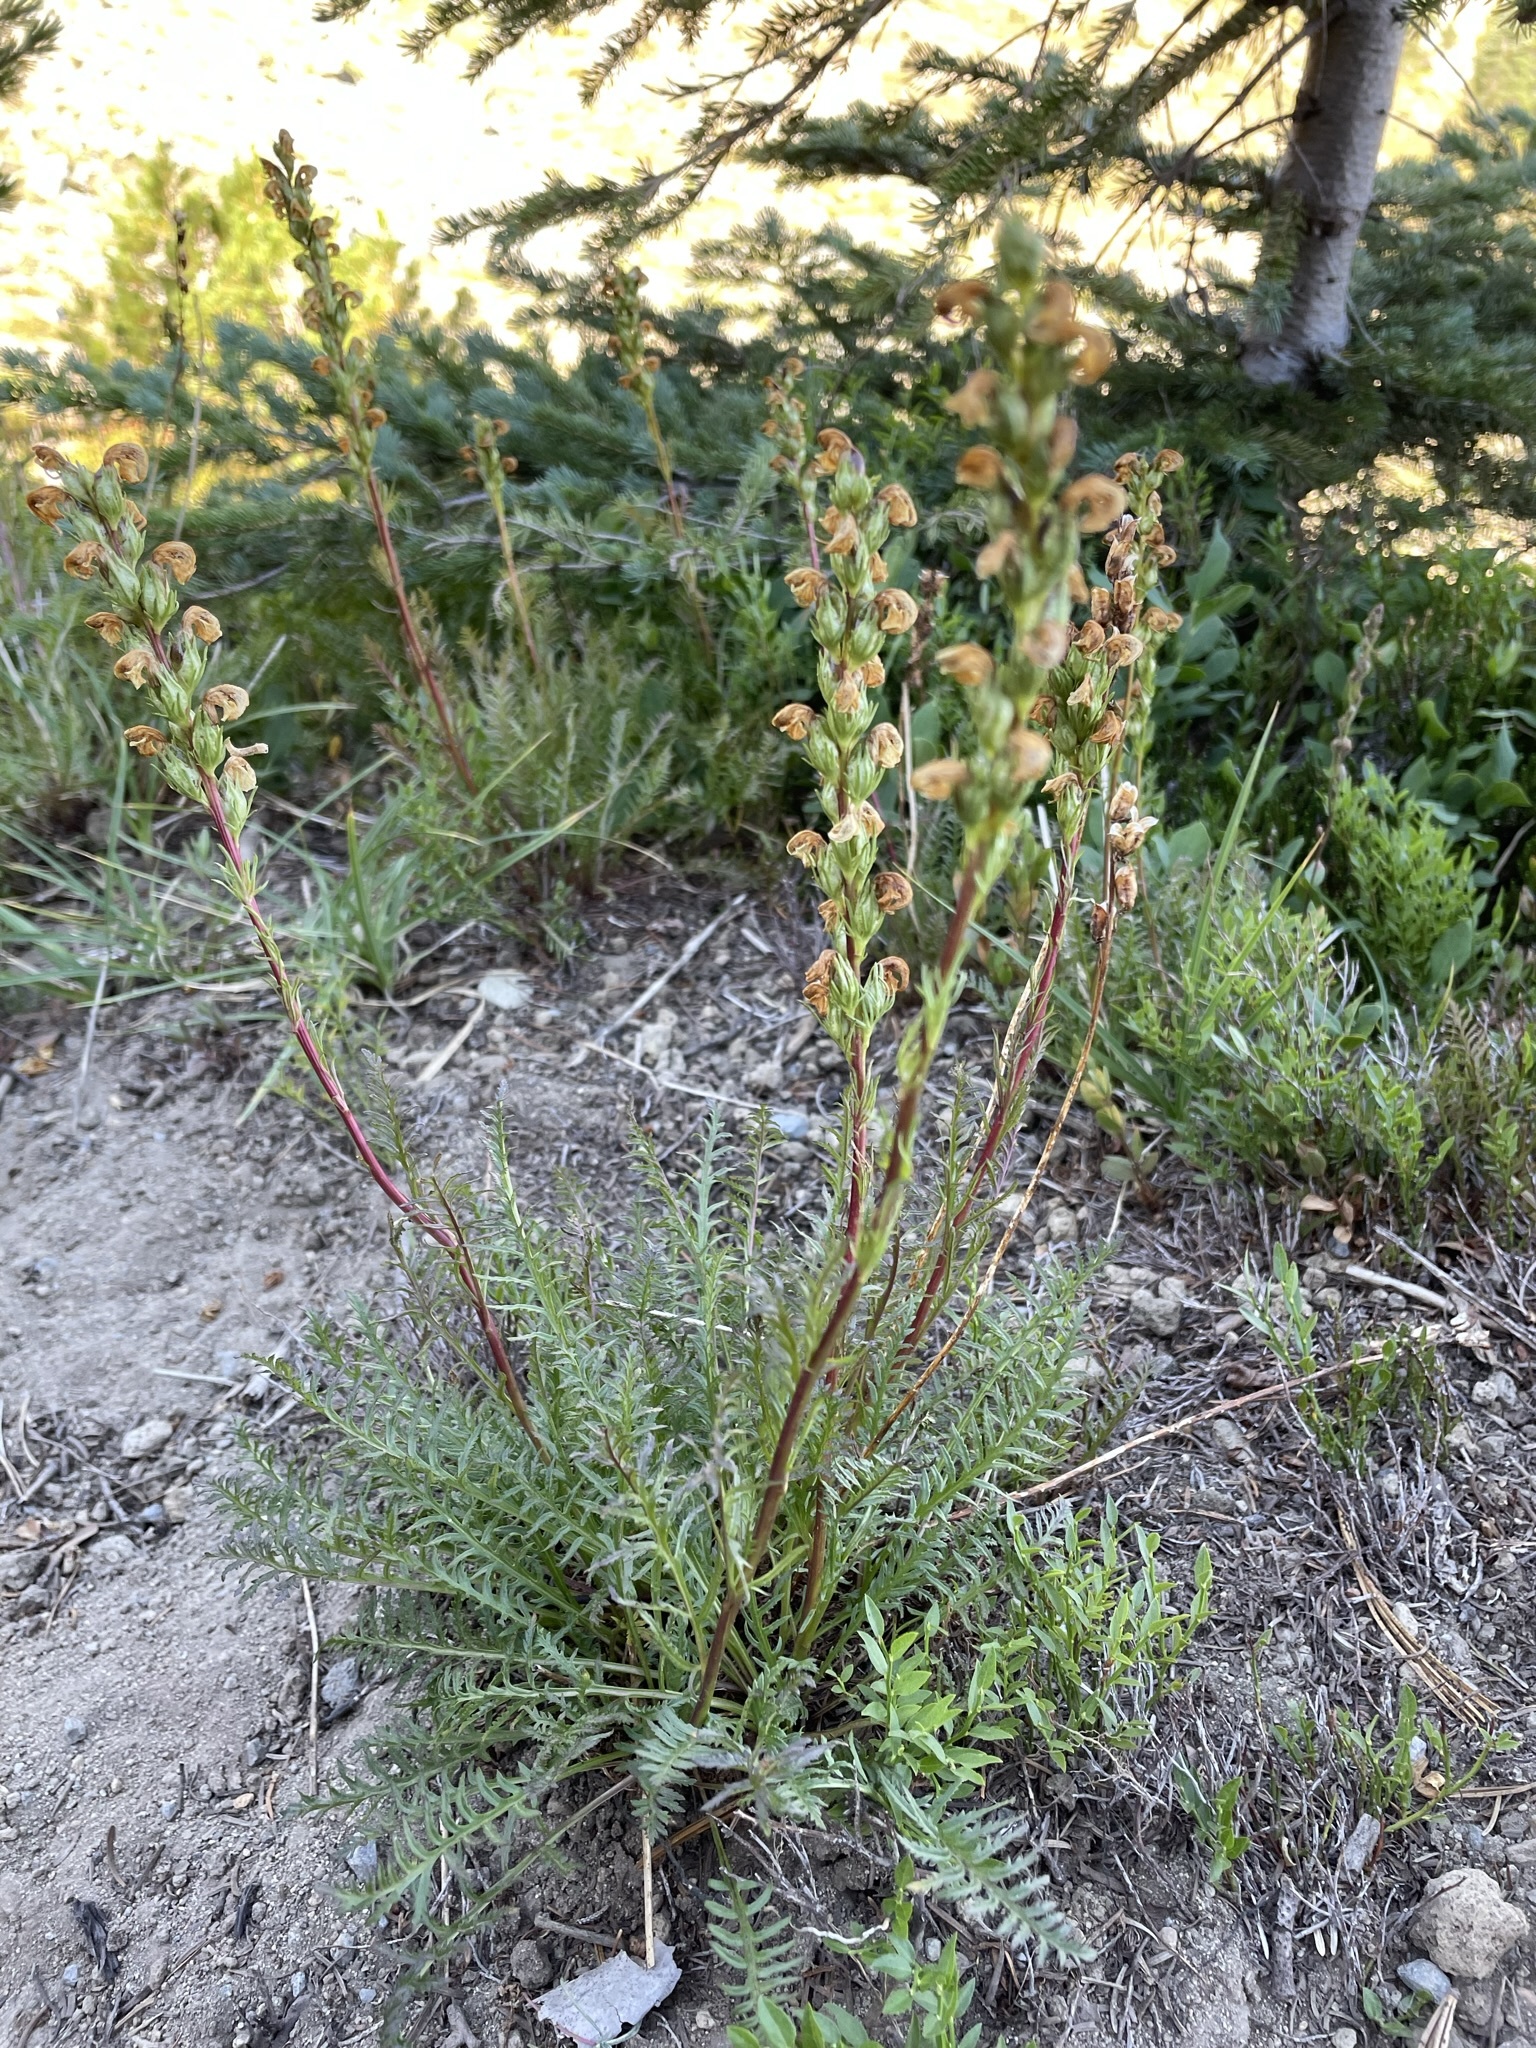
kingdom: Plantae
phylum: Tracheophyta
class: Magnoliopsida
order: Lamiales
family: Orobanchaceae
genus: Pedicularis
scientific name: Pedicularis contorta
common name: Coiled lousewort
